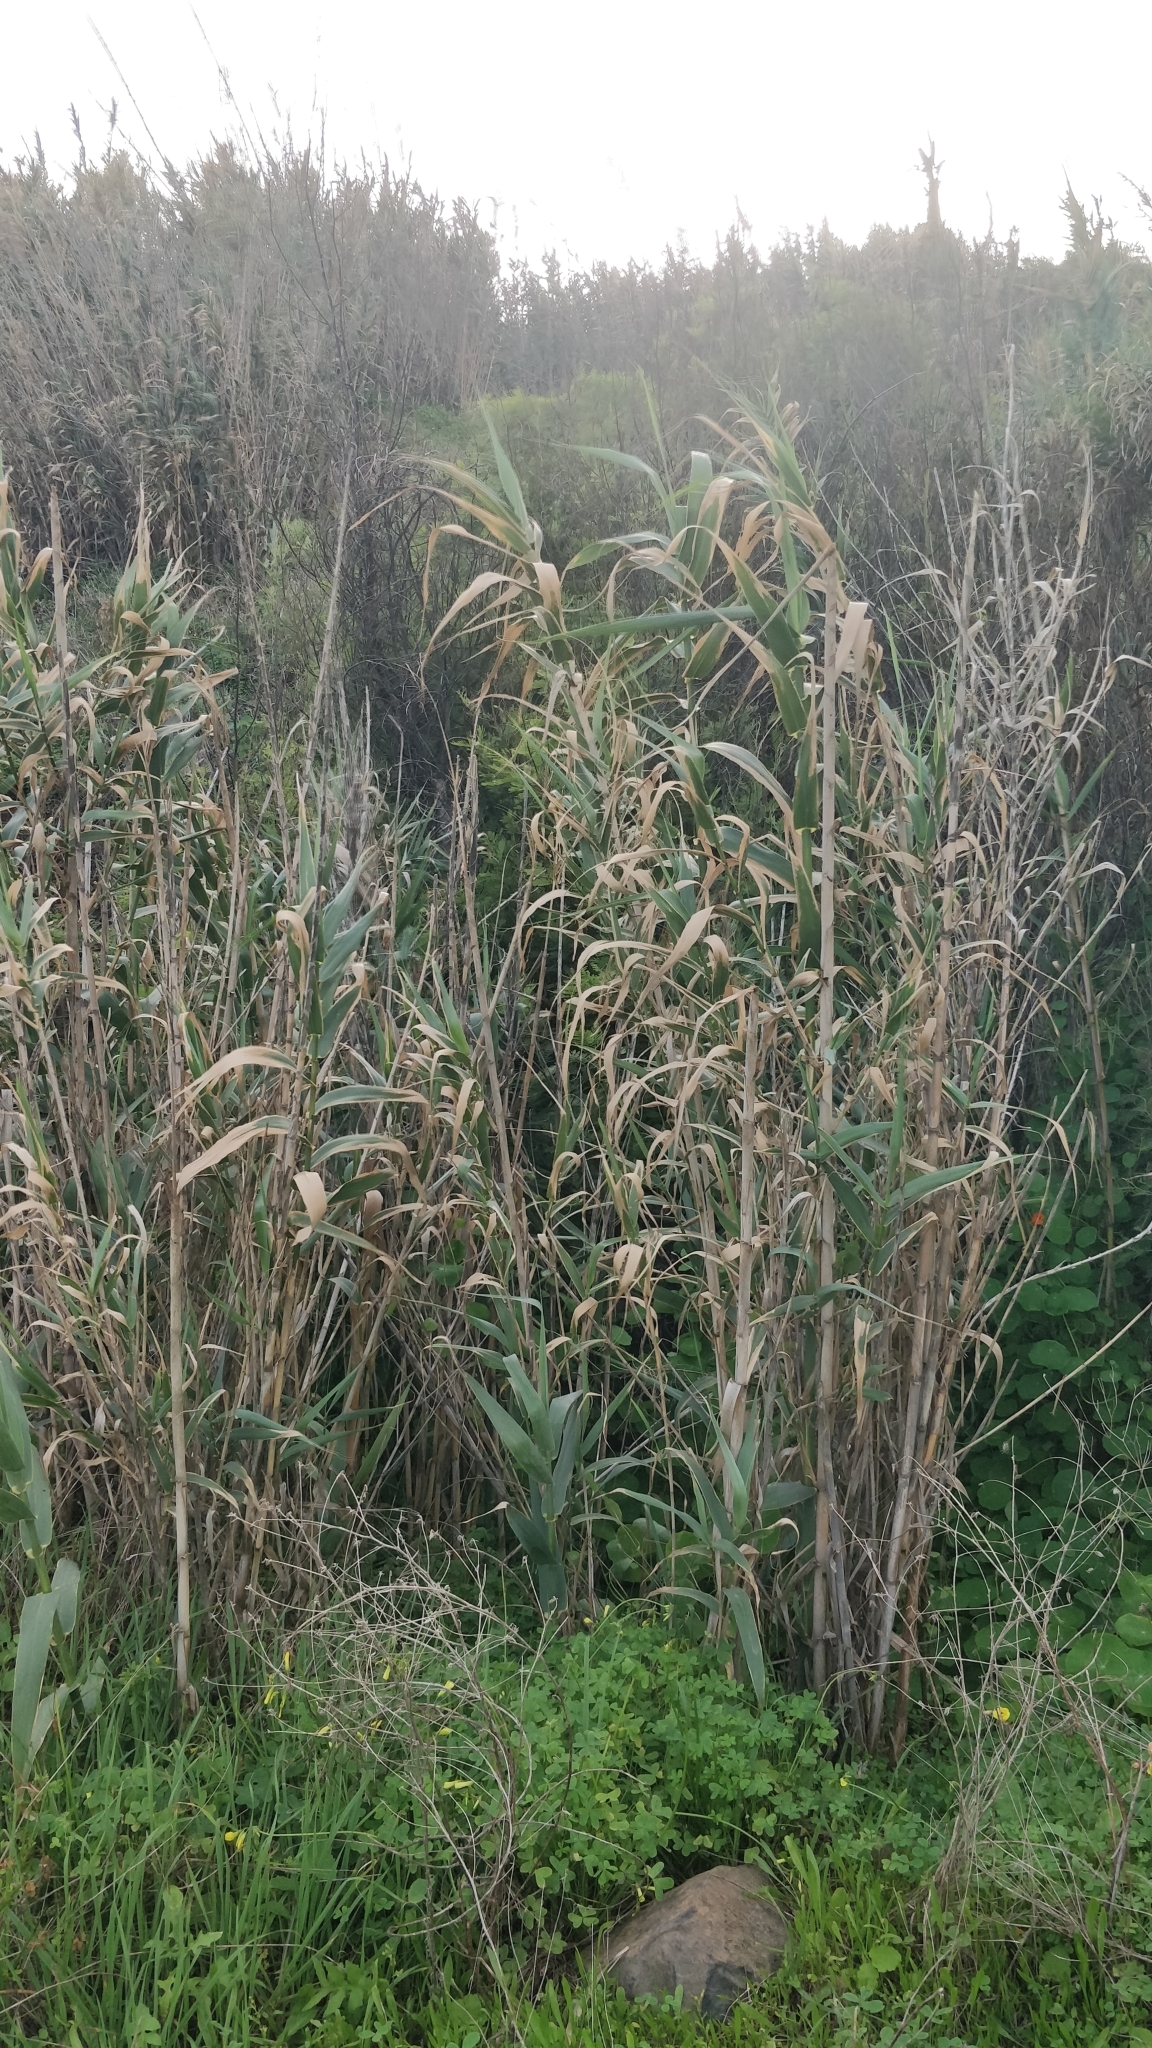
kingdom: Plantae
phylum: Tracheophyta
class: Liliopsida
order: Poales
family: Poaceae
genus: Arundo
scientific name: Arundo donax
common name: Giant reed
